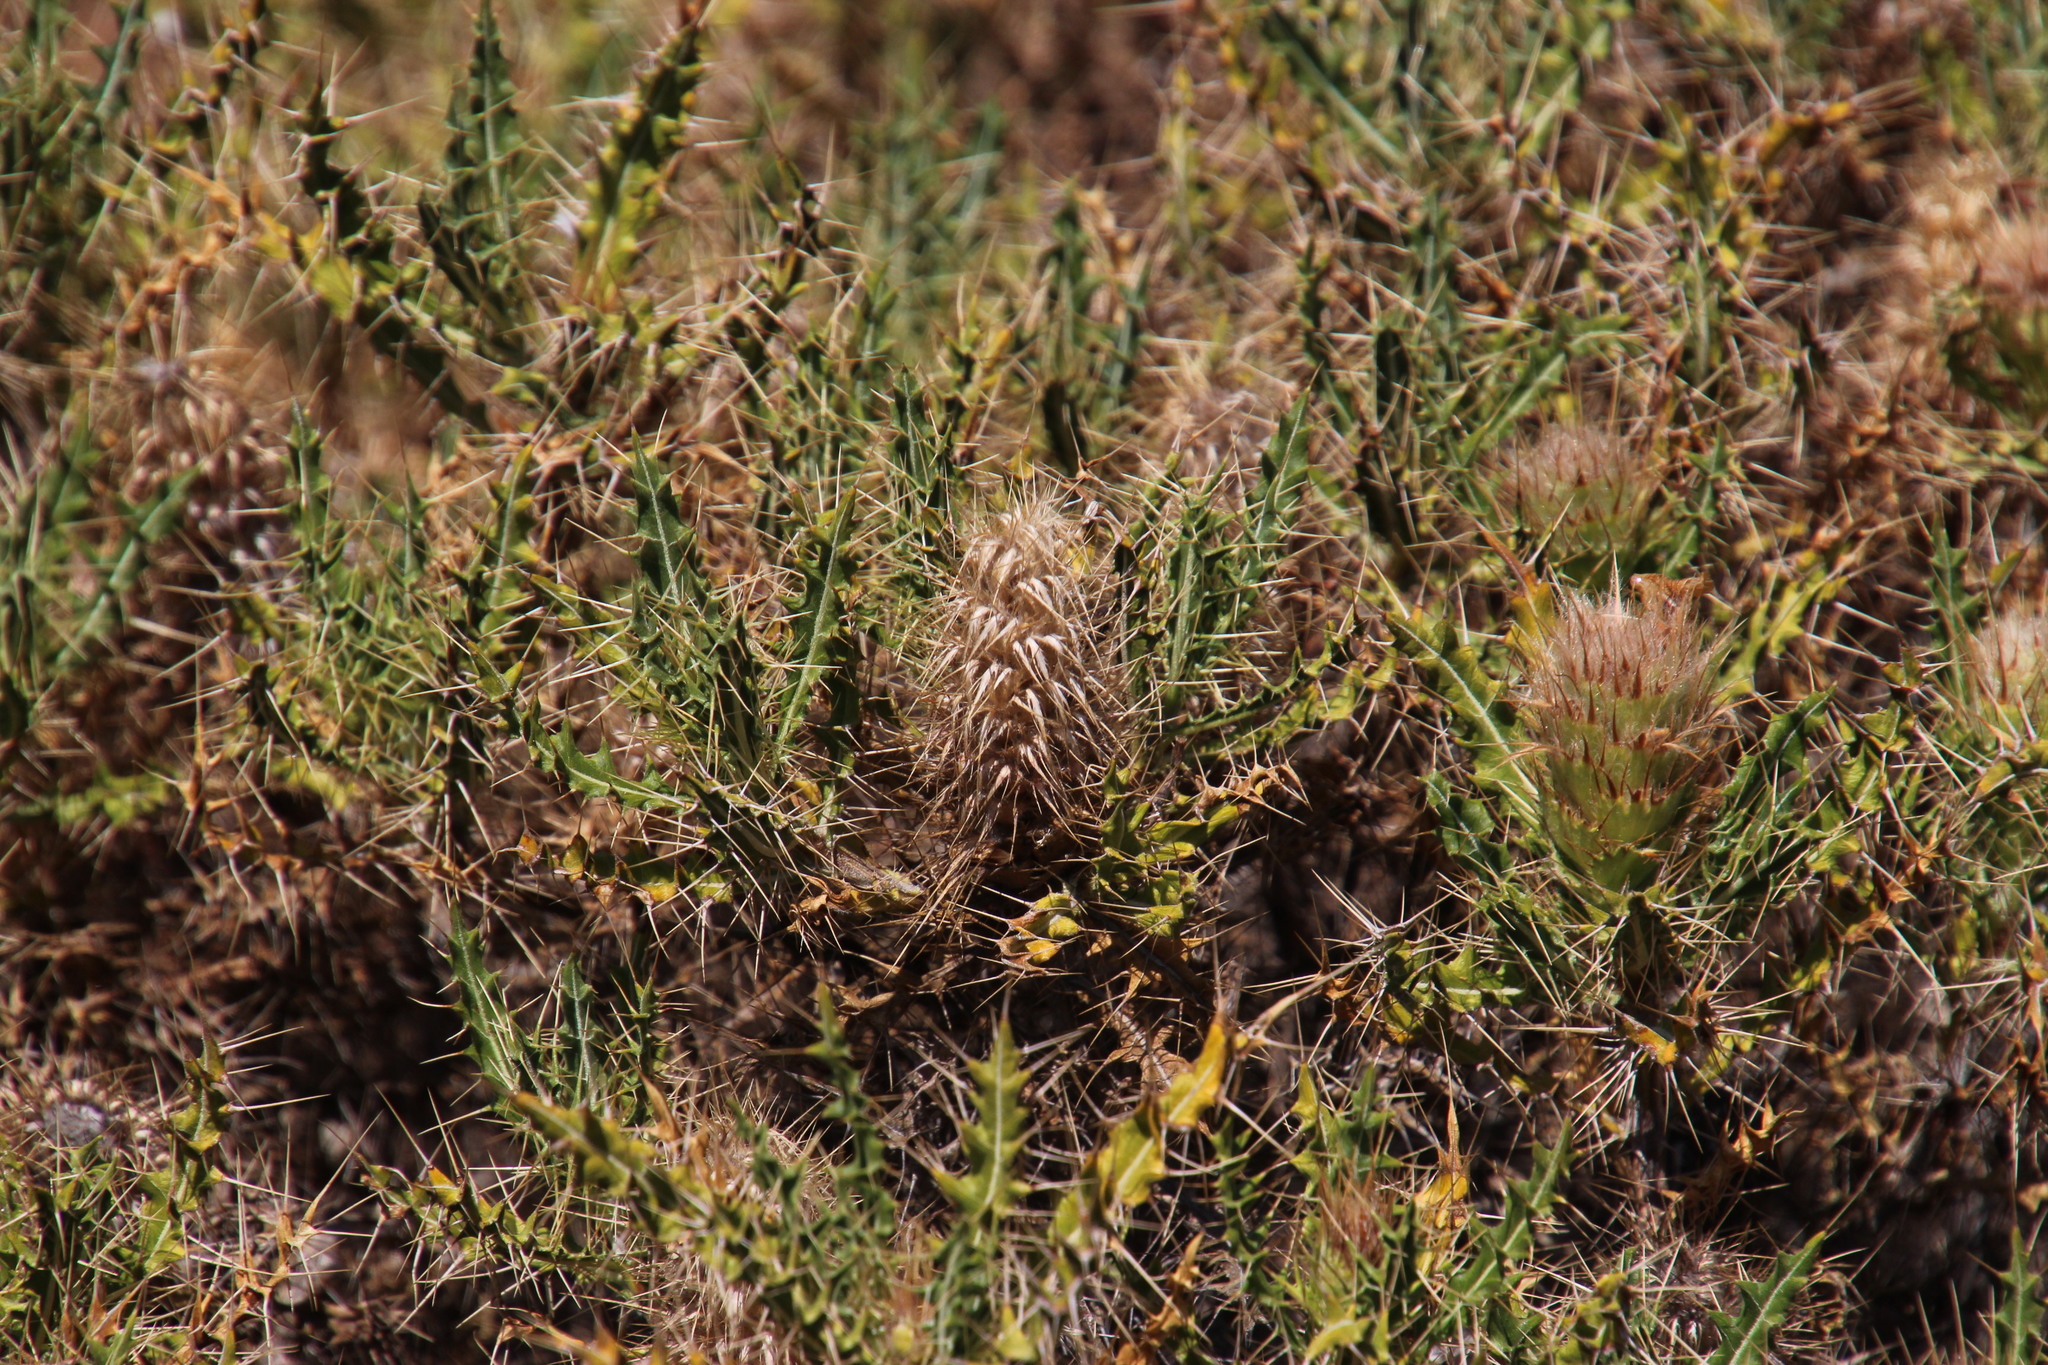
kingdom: Plantae
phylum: Tracheophyta
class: Magnoliopsida
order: Lamiales
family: Acanthaceae
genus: Acanthopsis
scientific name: Acanthopsis horrida
